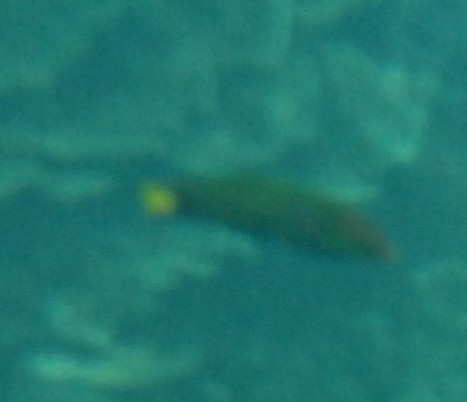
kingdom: Animalia
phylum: Chordata
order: Perciformes
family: Labridae
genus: Thalassoma
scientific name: Thalassoma lunare
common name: Blue wrasse
